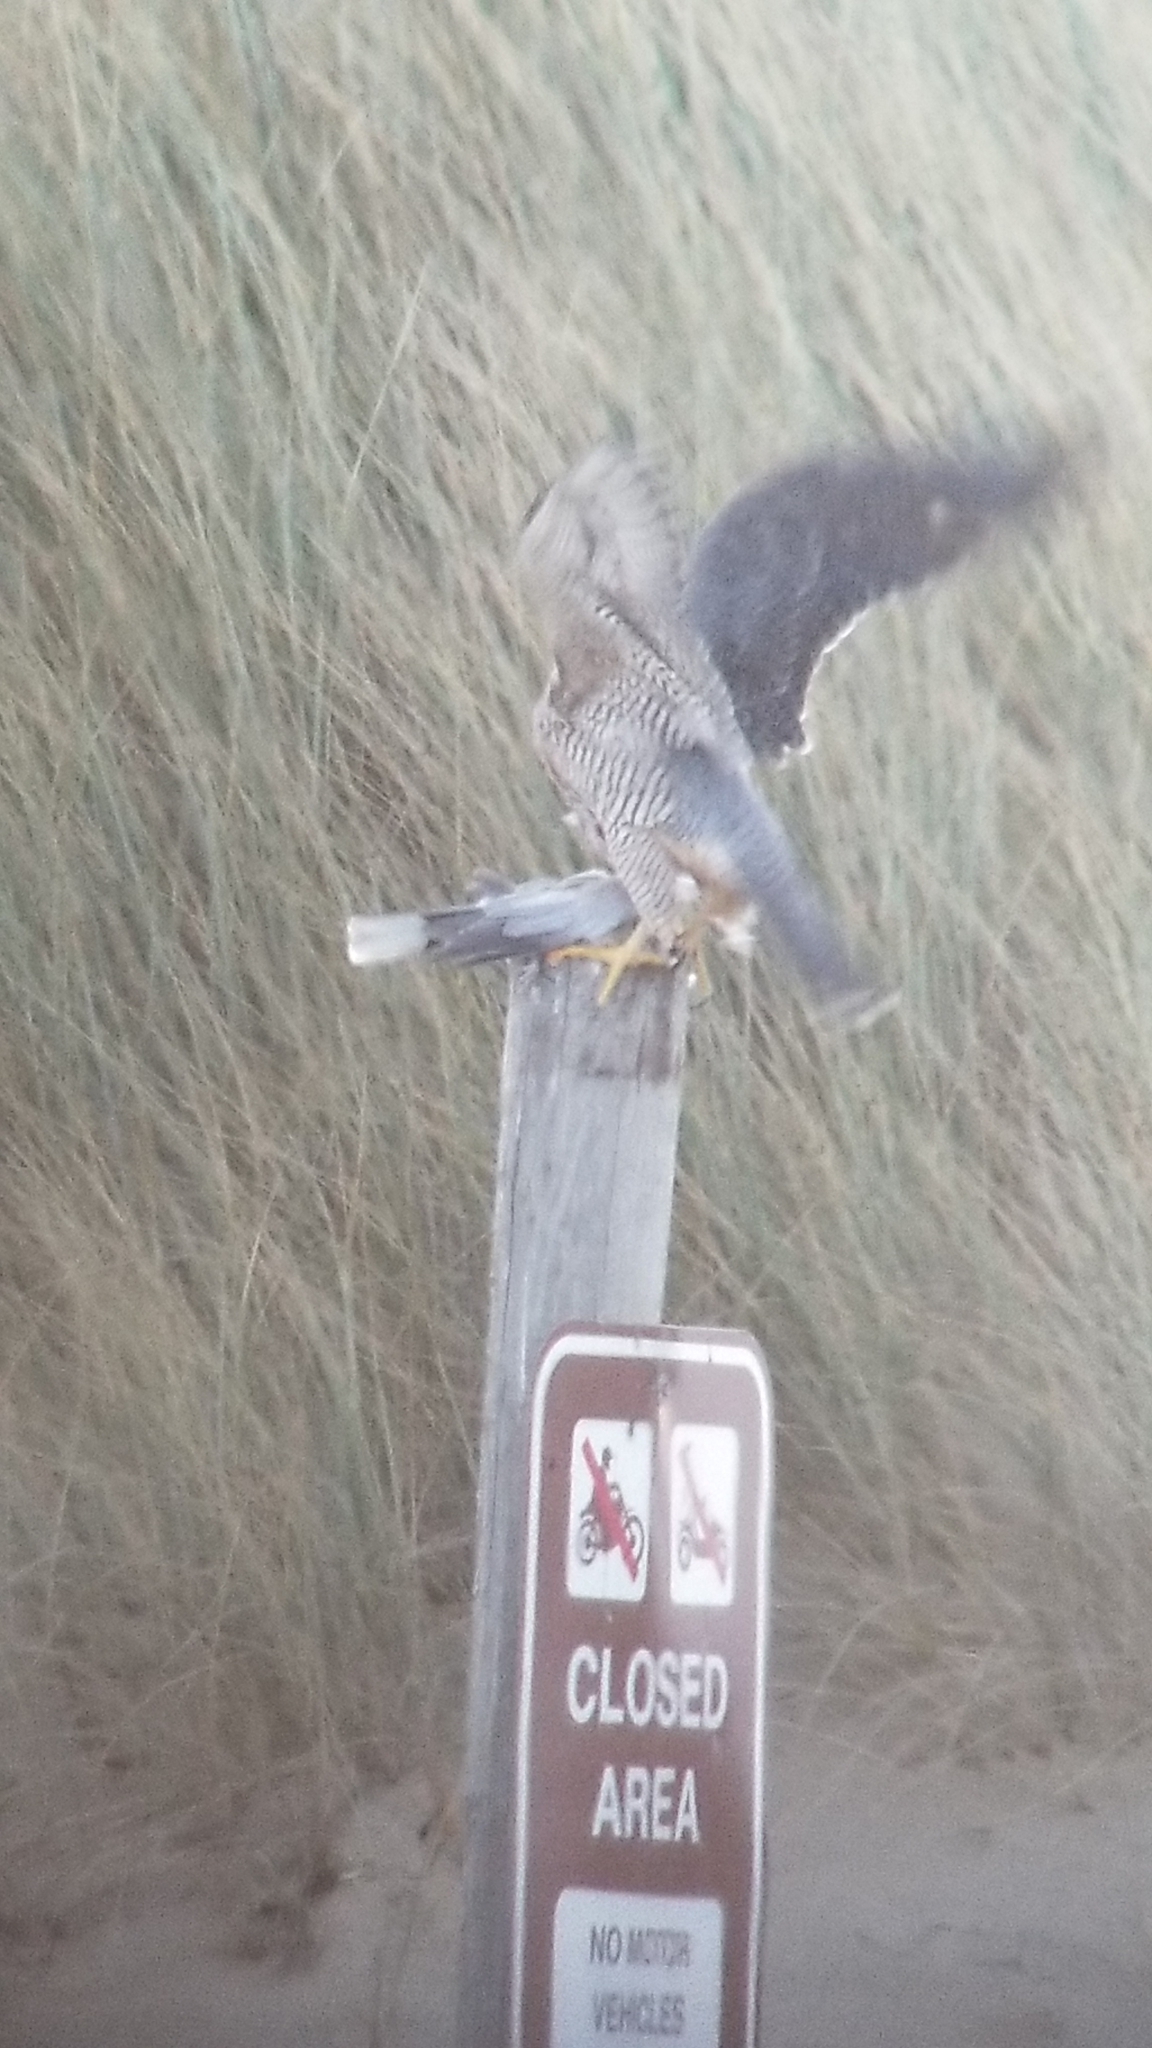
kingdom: Animalia
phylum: Chordata
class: Aves
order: Falconiformes
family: Falconidae
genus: Falco
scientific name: Falco peregrinus
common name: Peregrine falcon
